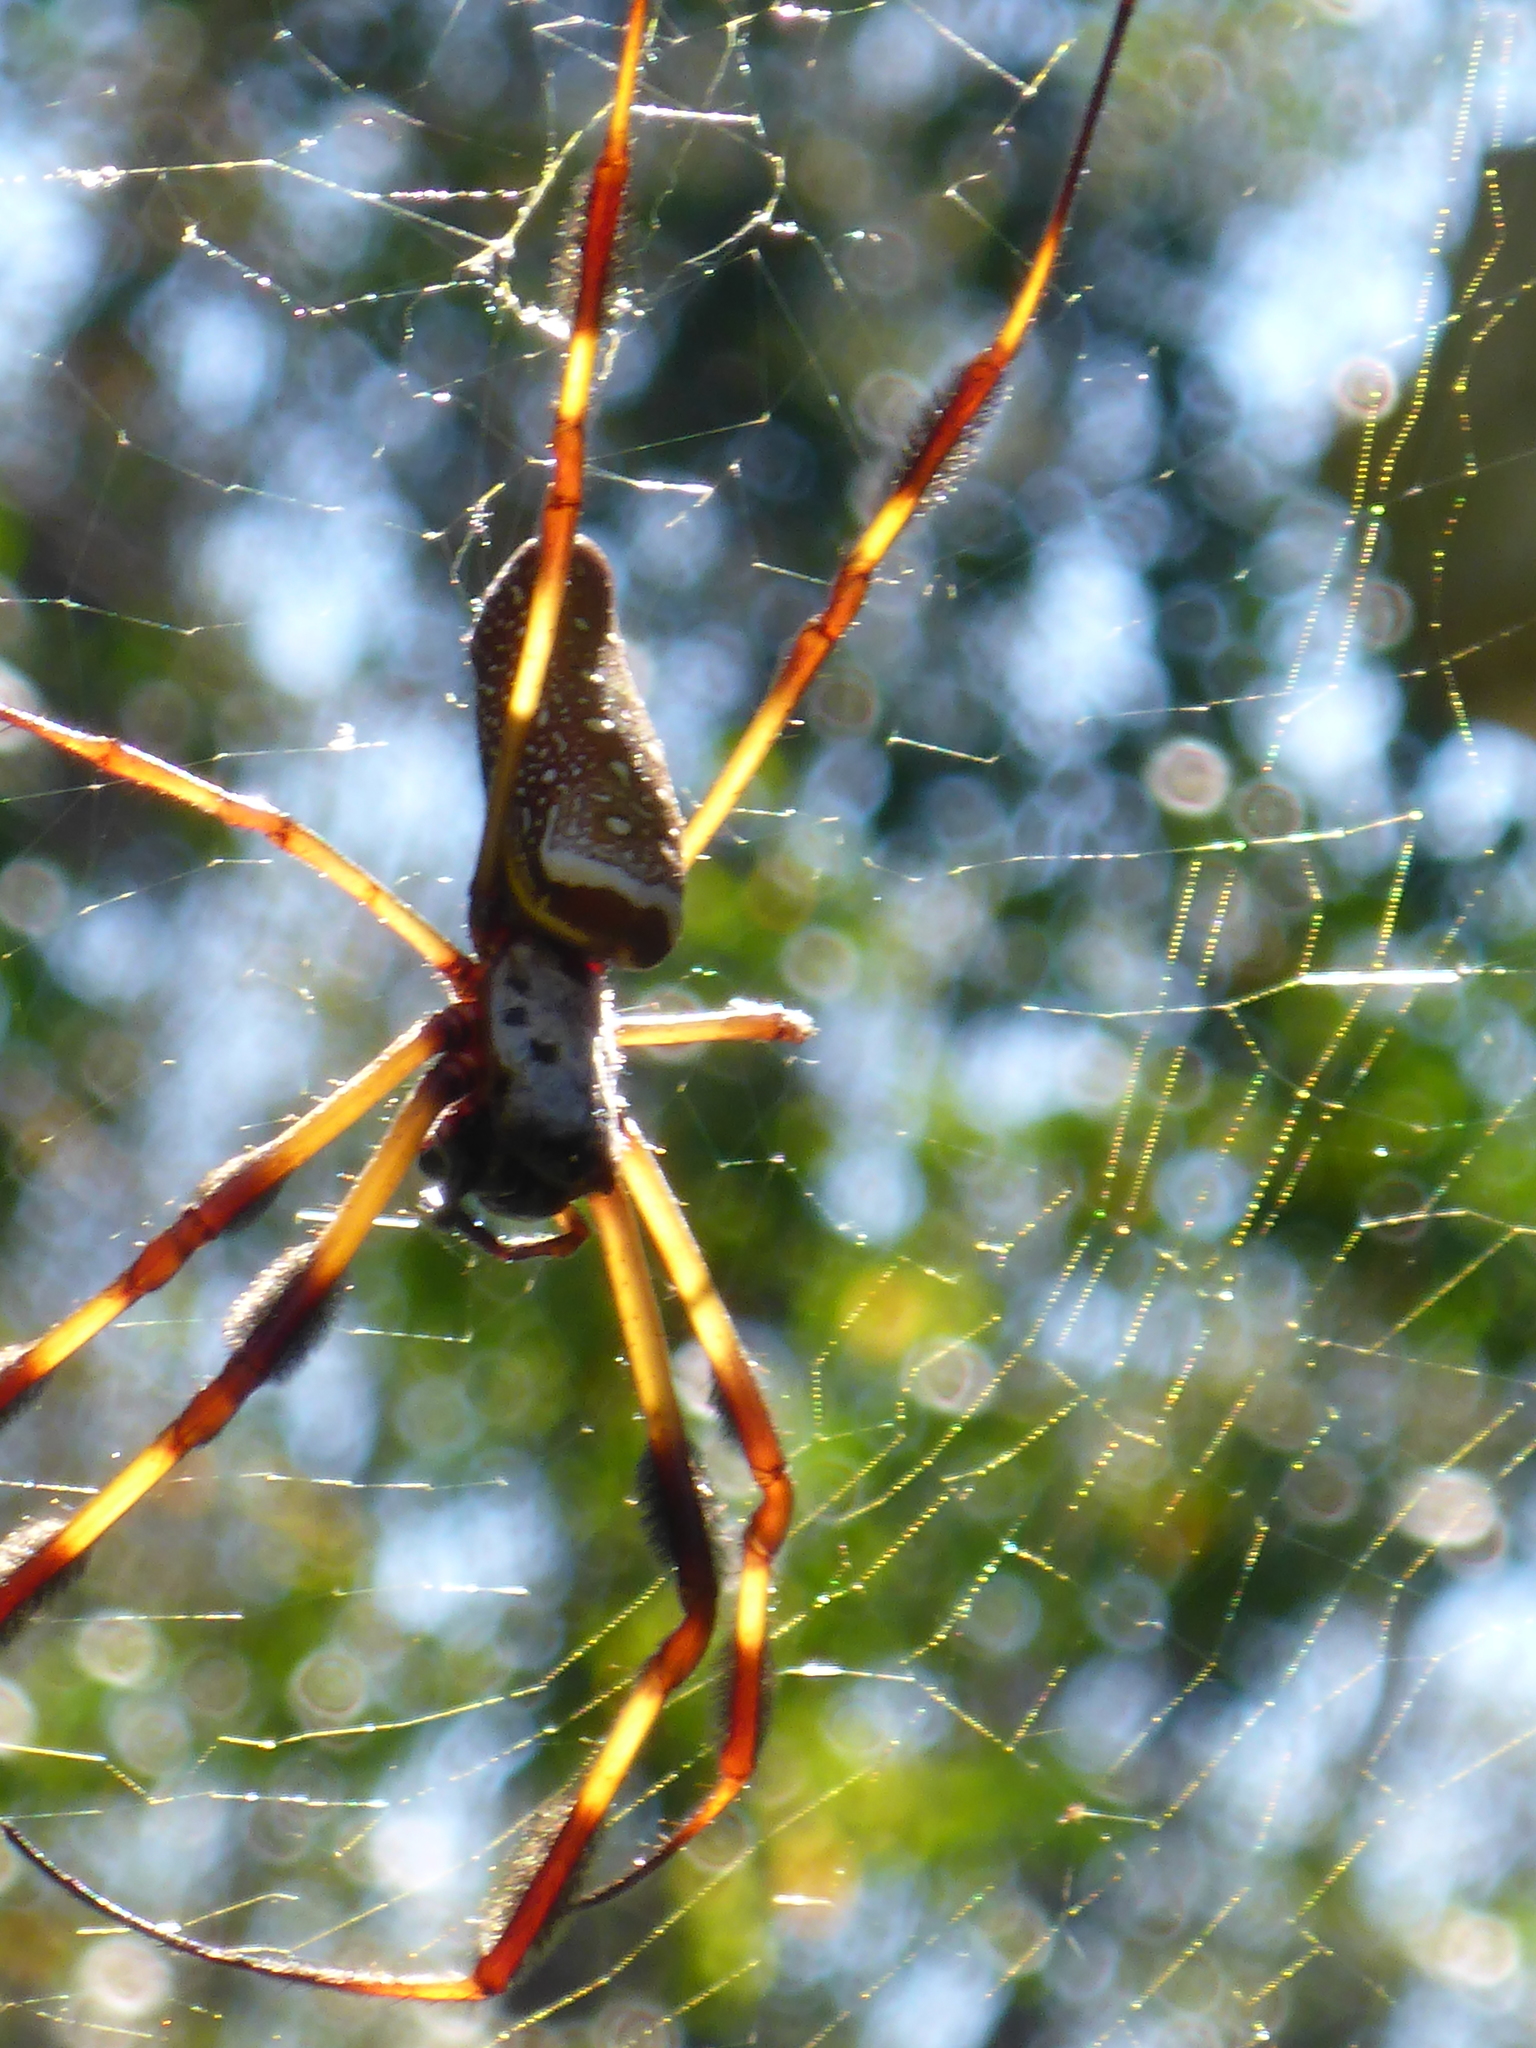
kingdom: Animalia
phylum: Arthropoda
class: Arachnida
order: Araneae
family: Araneidae
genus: Trichonephila
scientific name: Trichonephila clavipes
